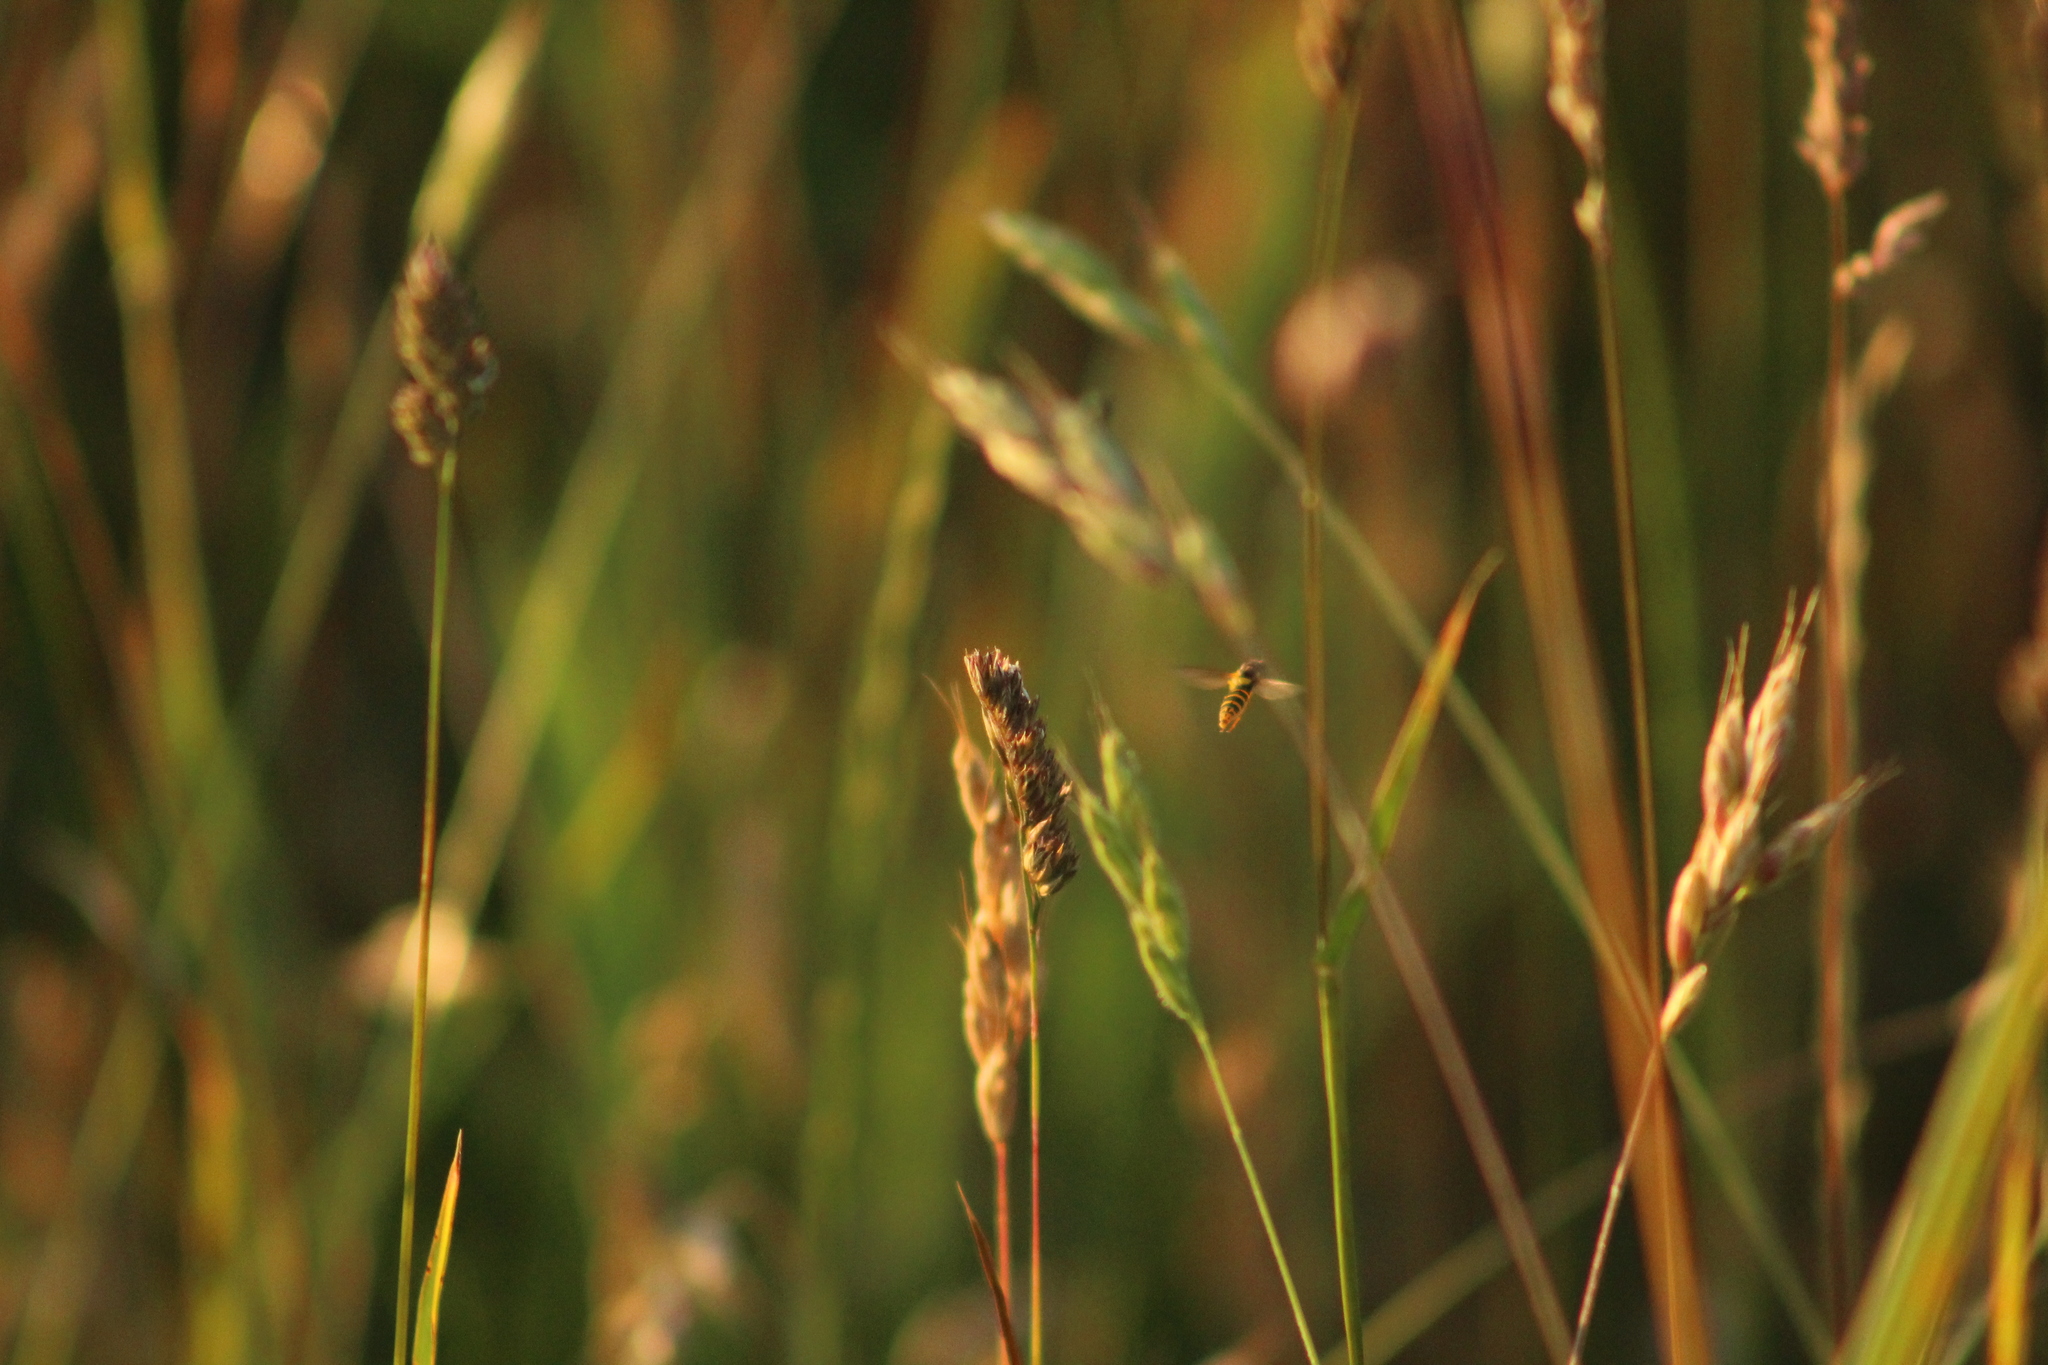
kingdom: Animalia
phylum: Arthropoda
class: Insecta
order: Diptera
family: Syrphidae
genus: Sphaerophoria
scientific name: Sphaerophoria
